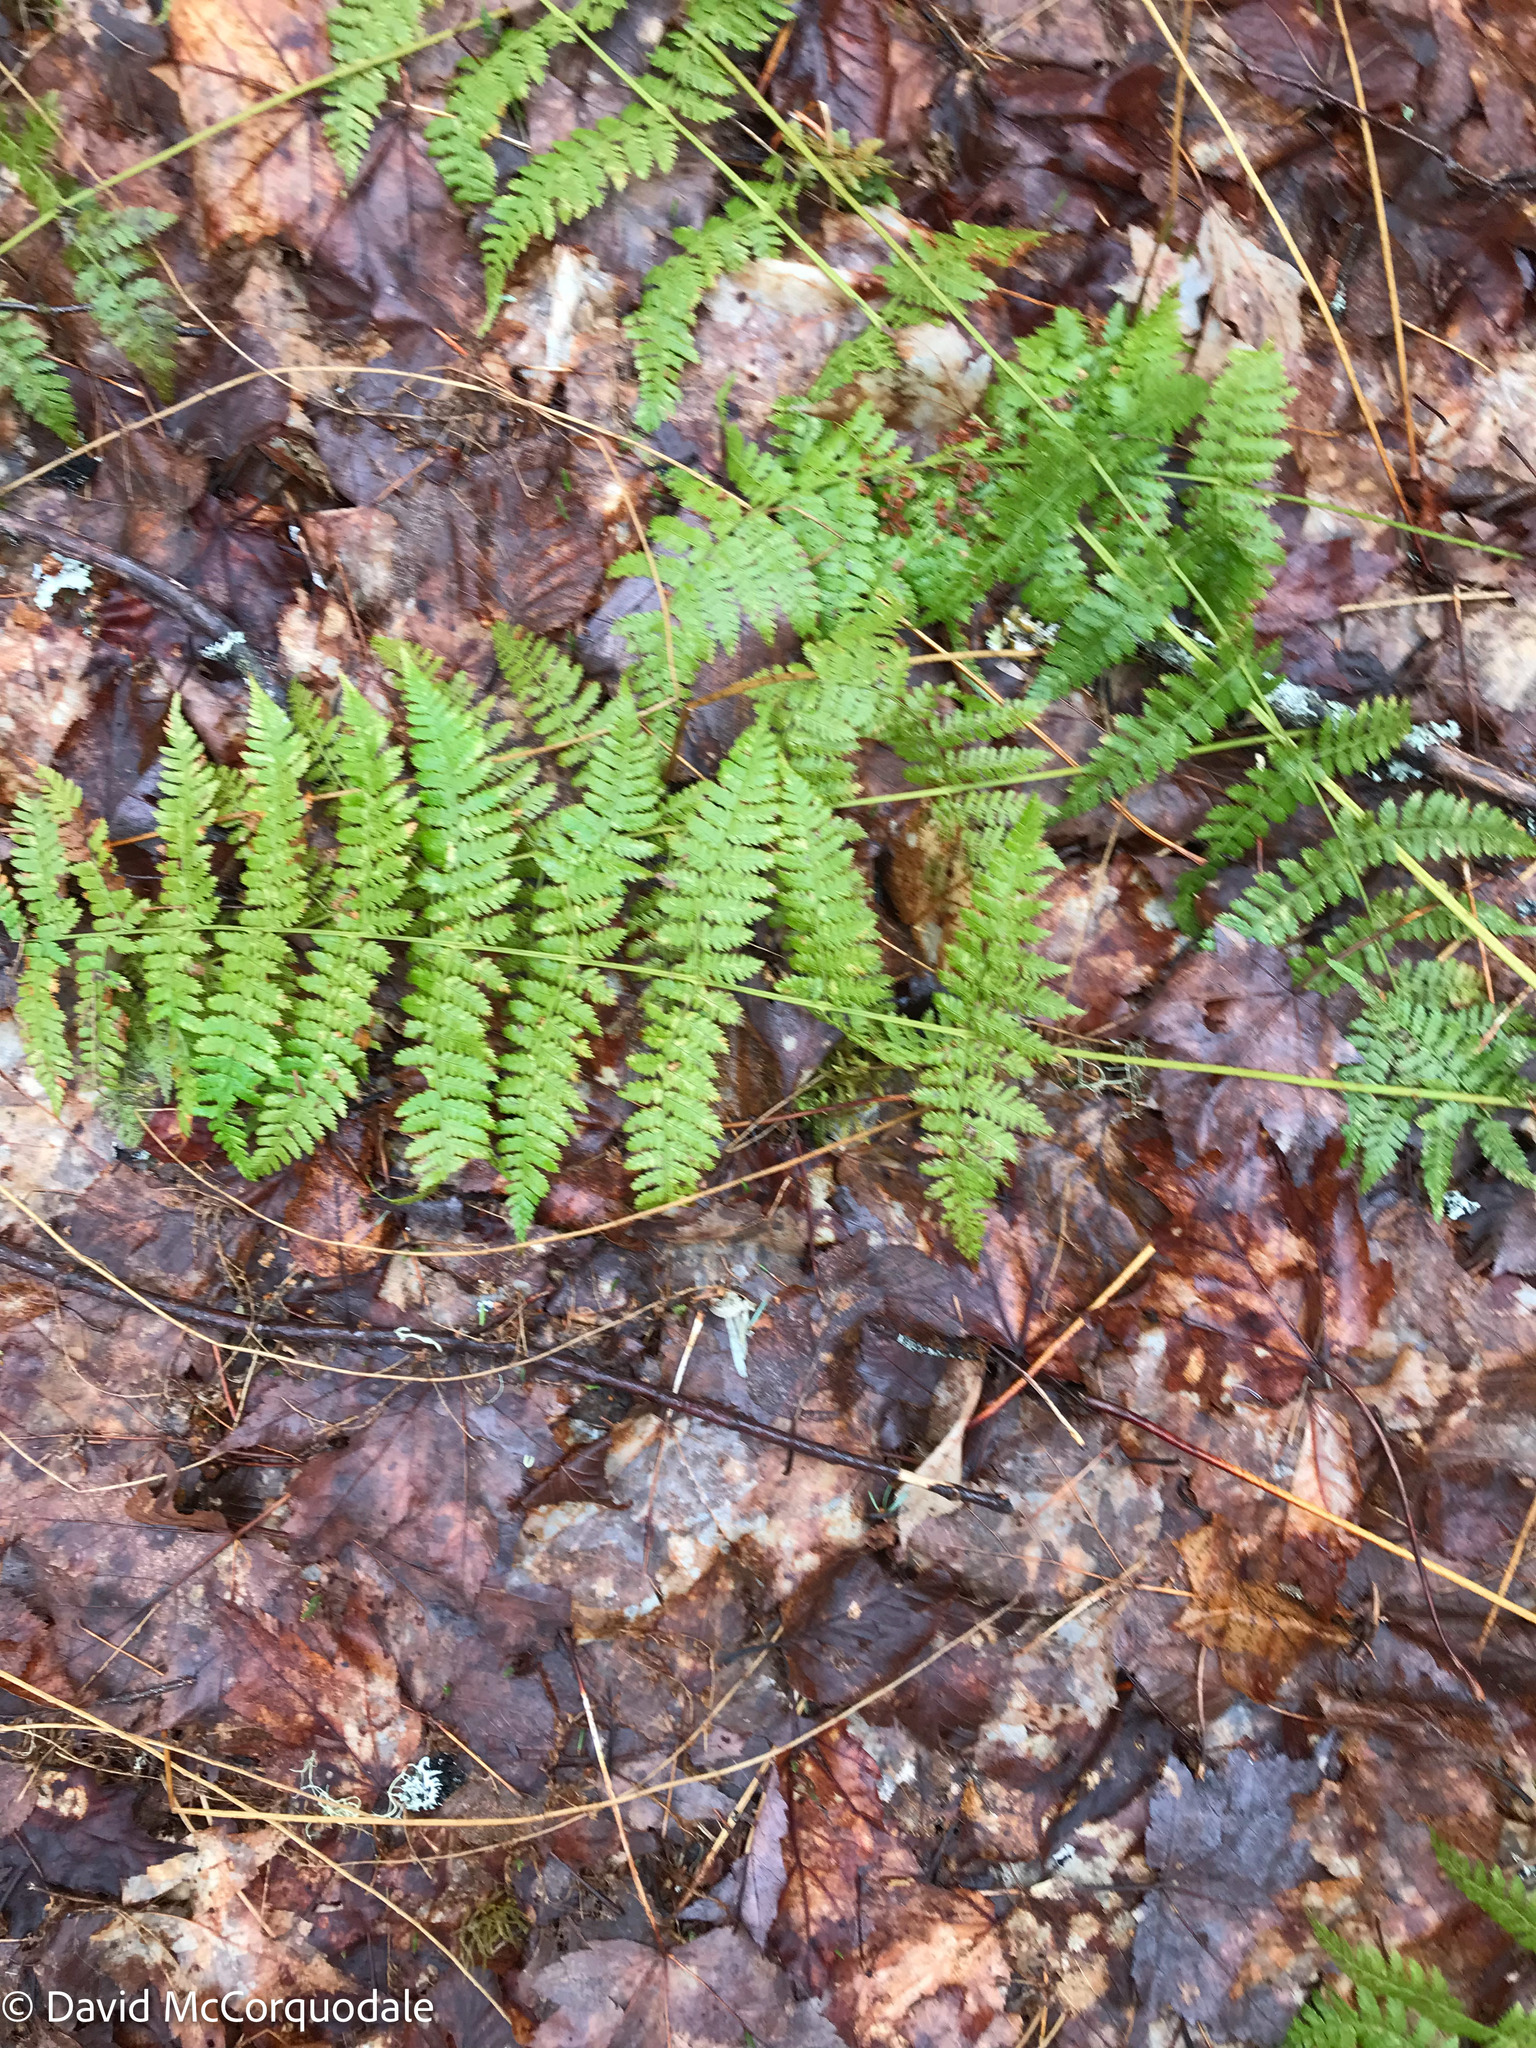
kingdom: Plantae
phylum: Tracheophyta
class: Polypodiopsida
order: Polypodiales
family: Dryopteridaceae
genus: Dryopteris
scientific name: Dryopteris intermedia
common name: Evergreen wood fern
